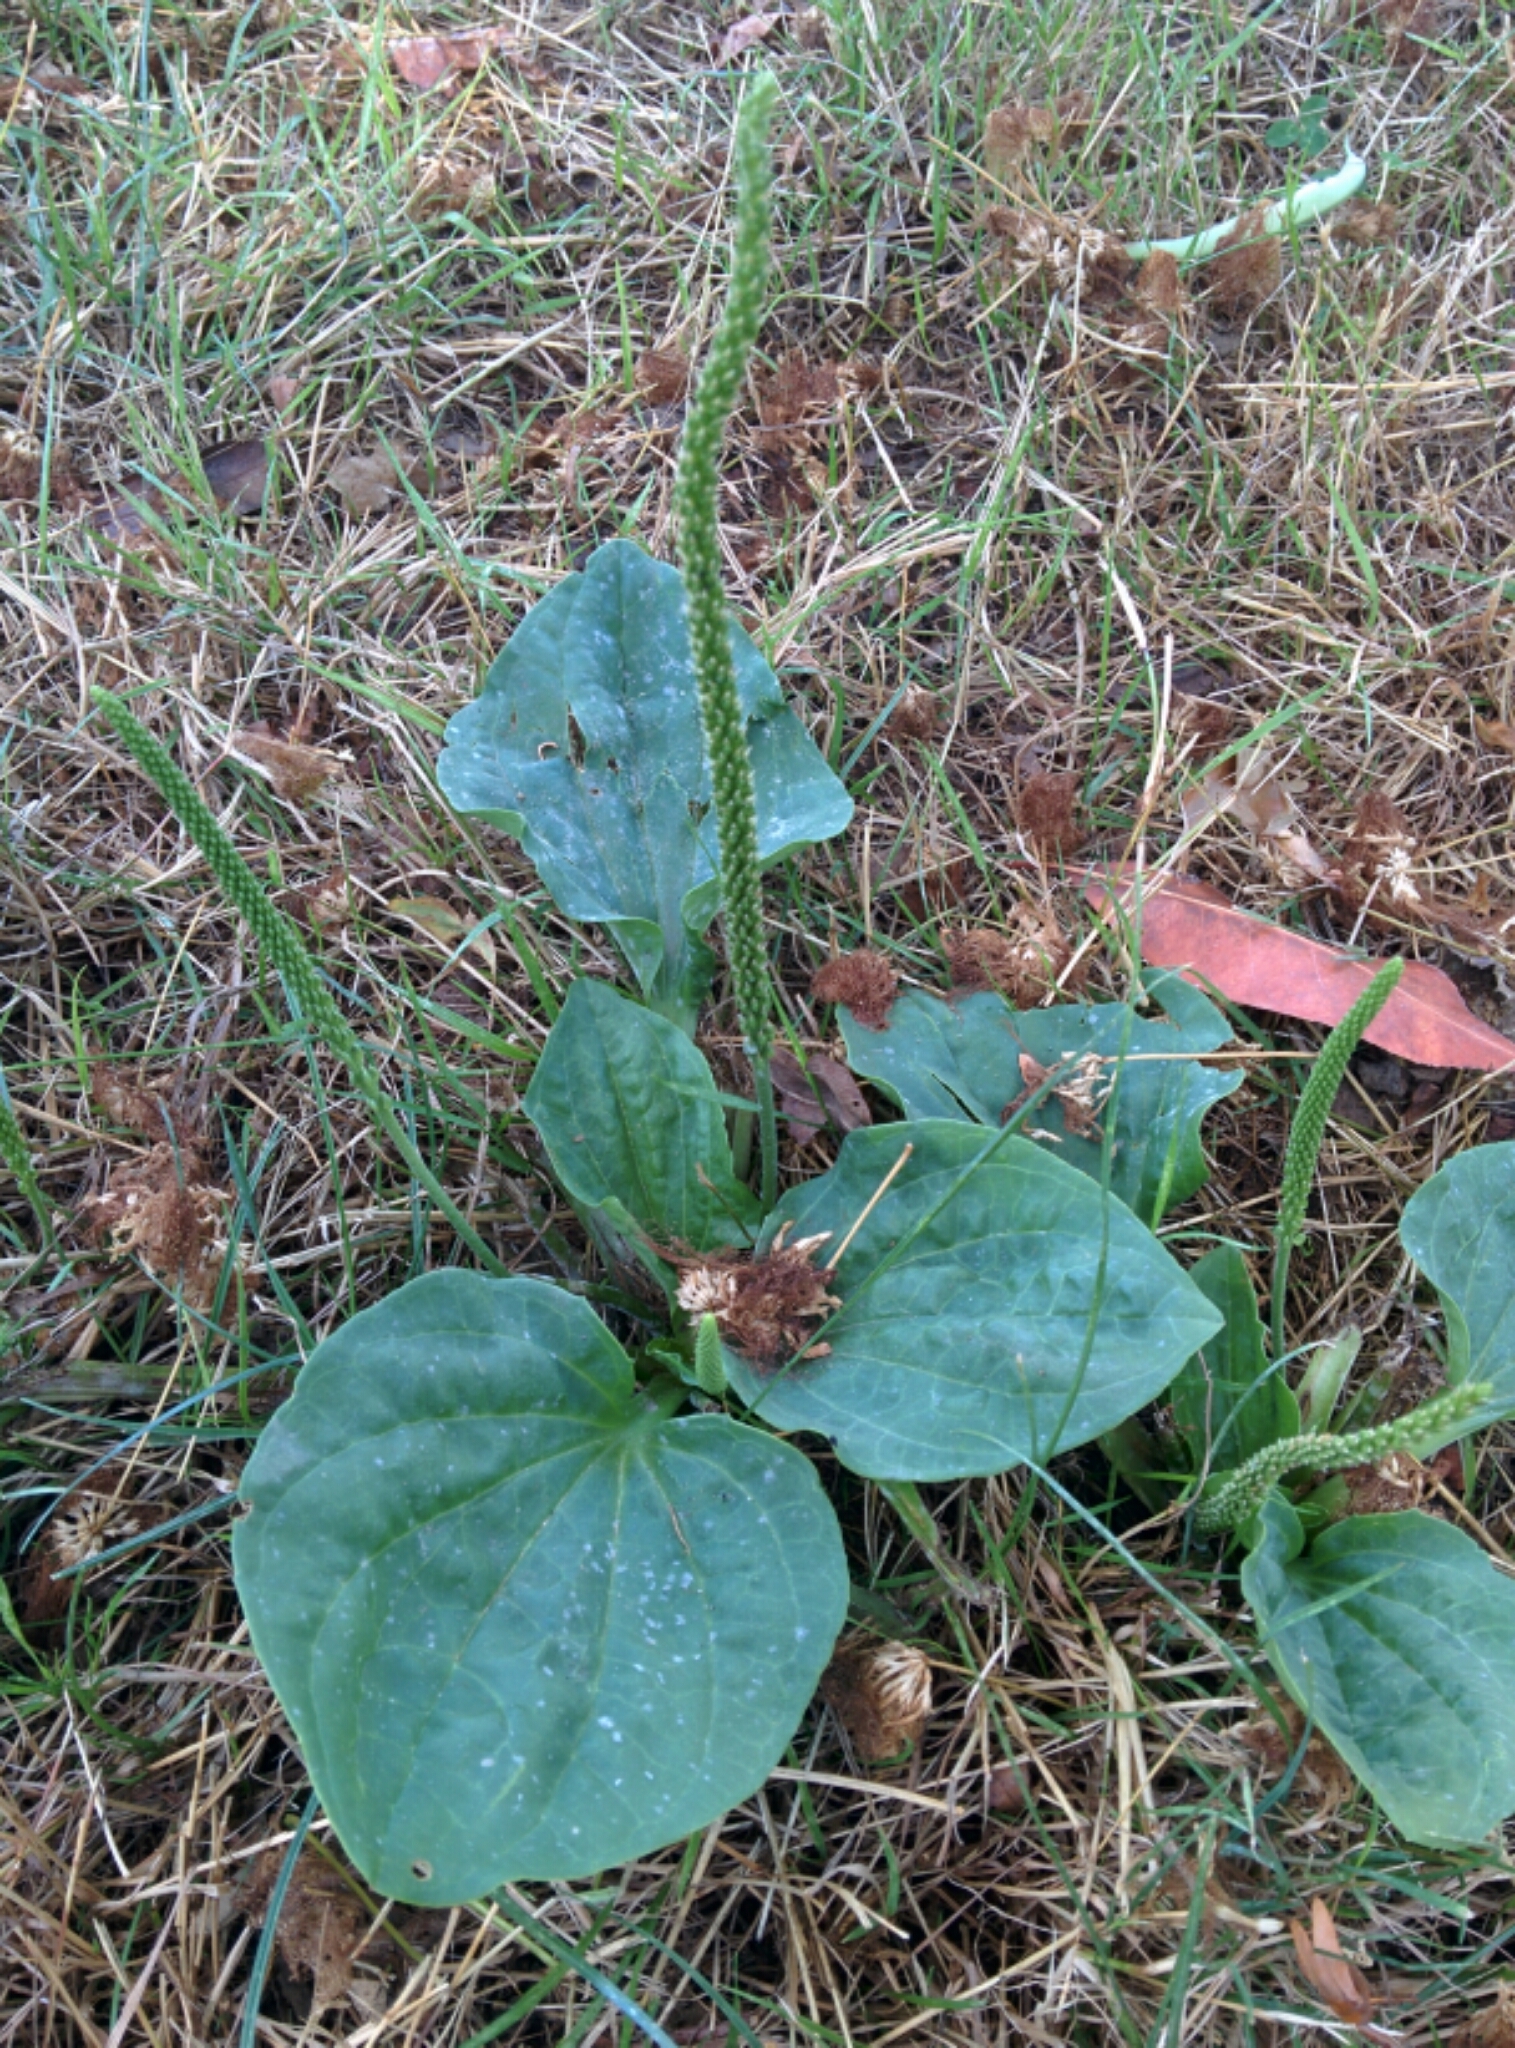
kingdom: Plantae
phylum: Tracheophyta
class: Magnoliopsida
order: Lamiales
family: Plantaginaceae
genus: Plantago
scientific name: Plantago major
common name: Common plantain
